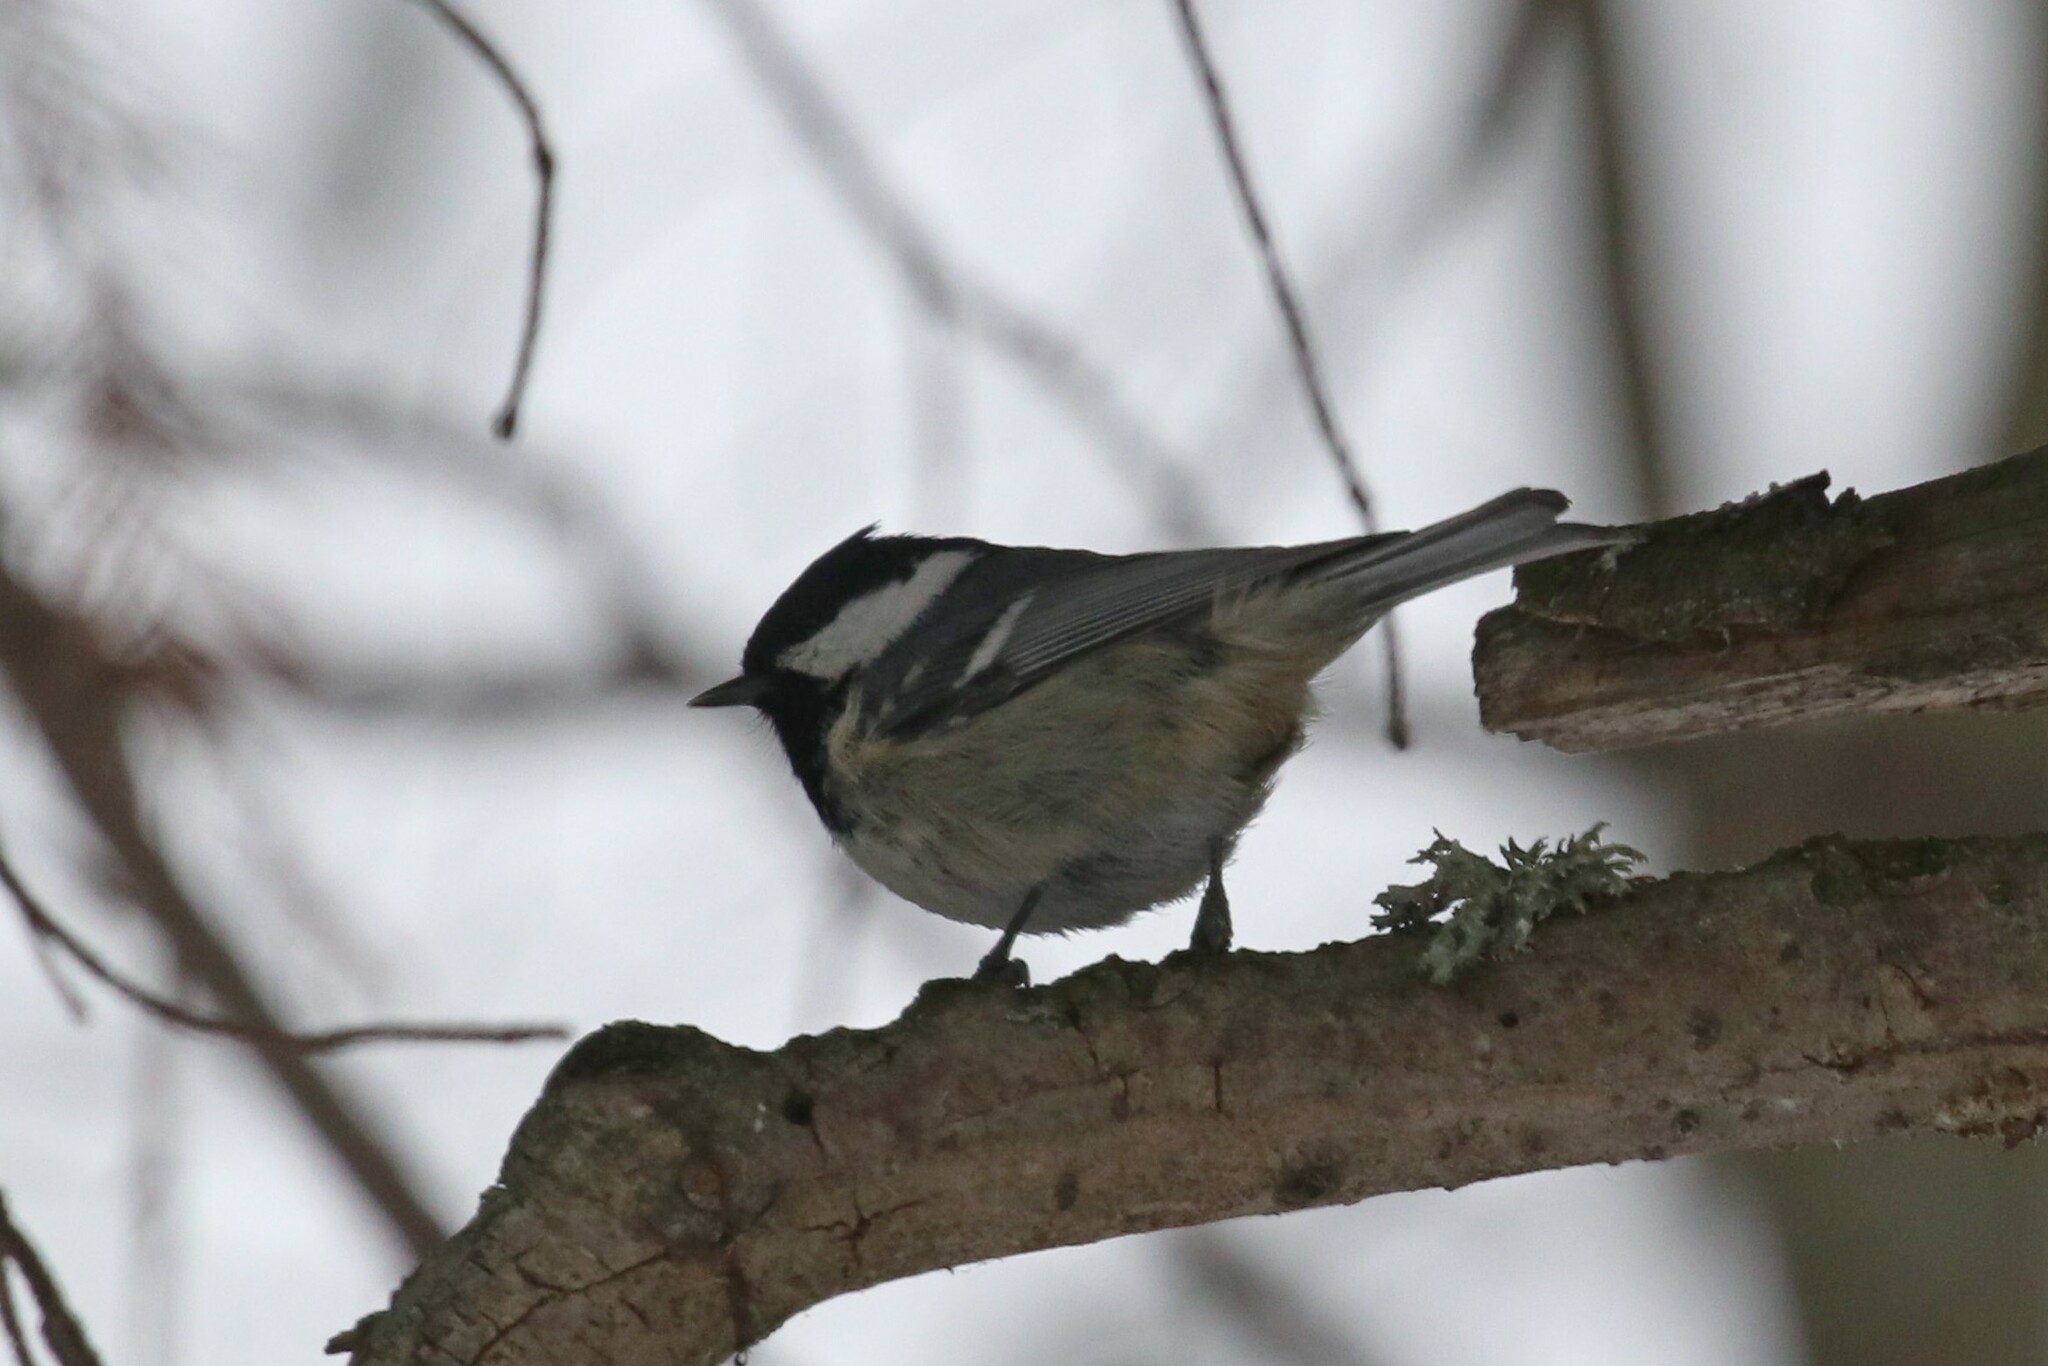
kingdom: Animalia
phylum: Chordata
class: Aves
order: Passeriformes
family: Paridae
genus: Periparus
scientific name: Periparus ater
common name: Coal tit
